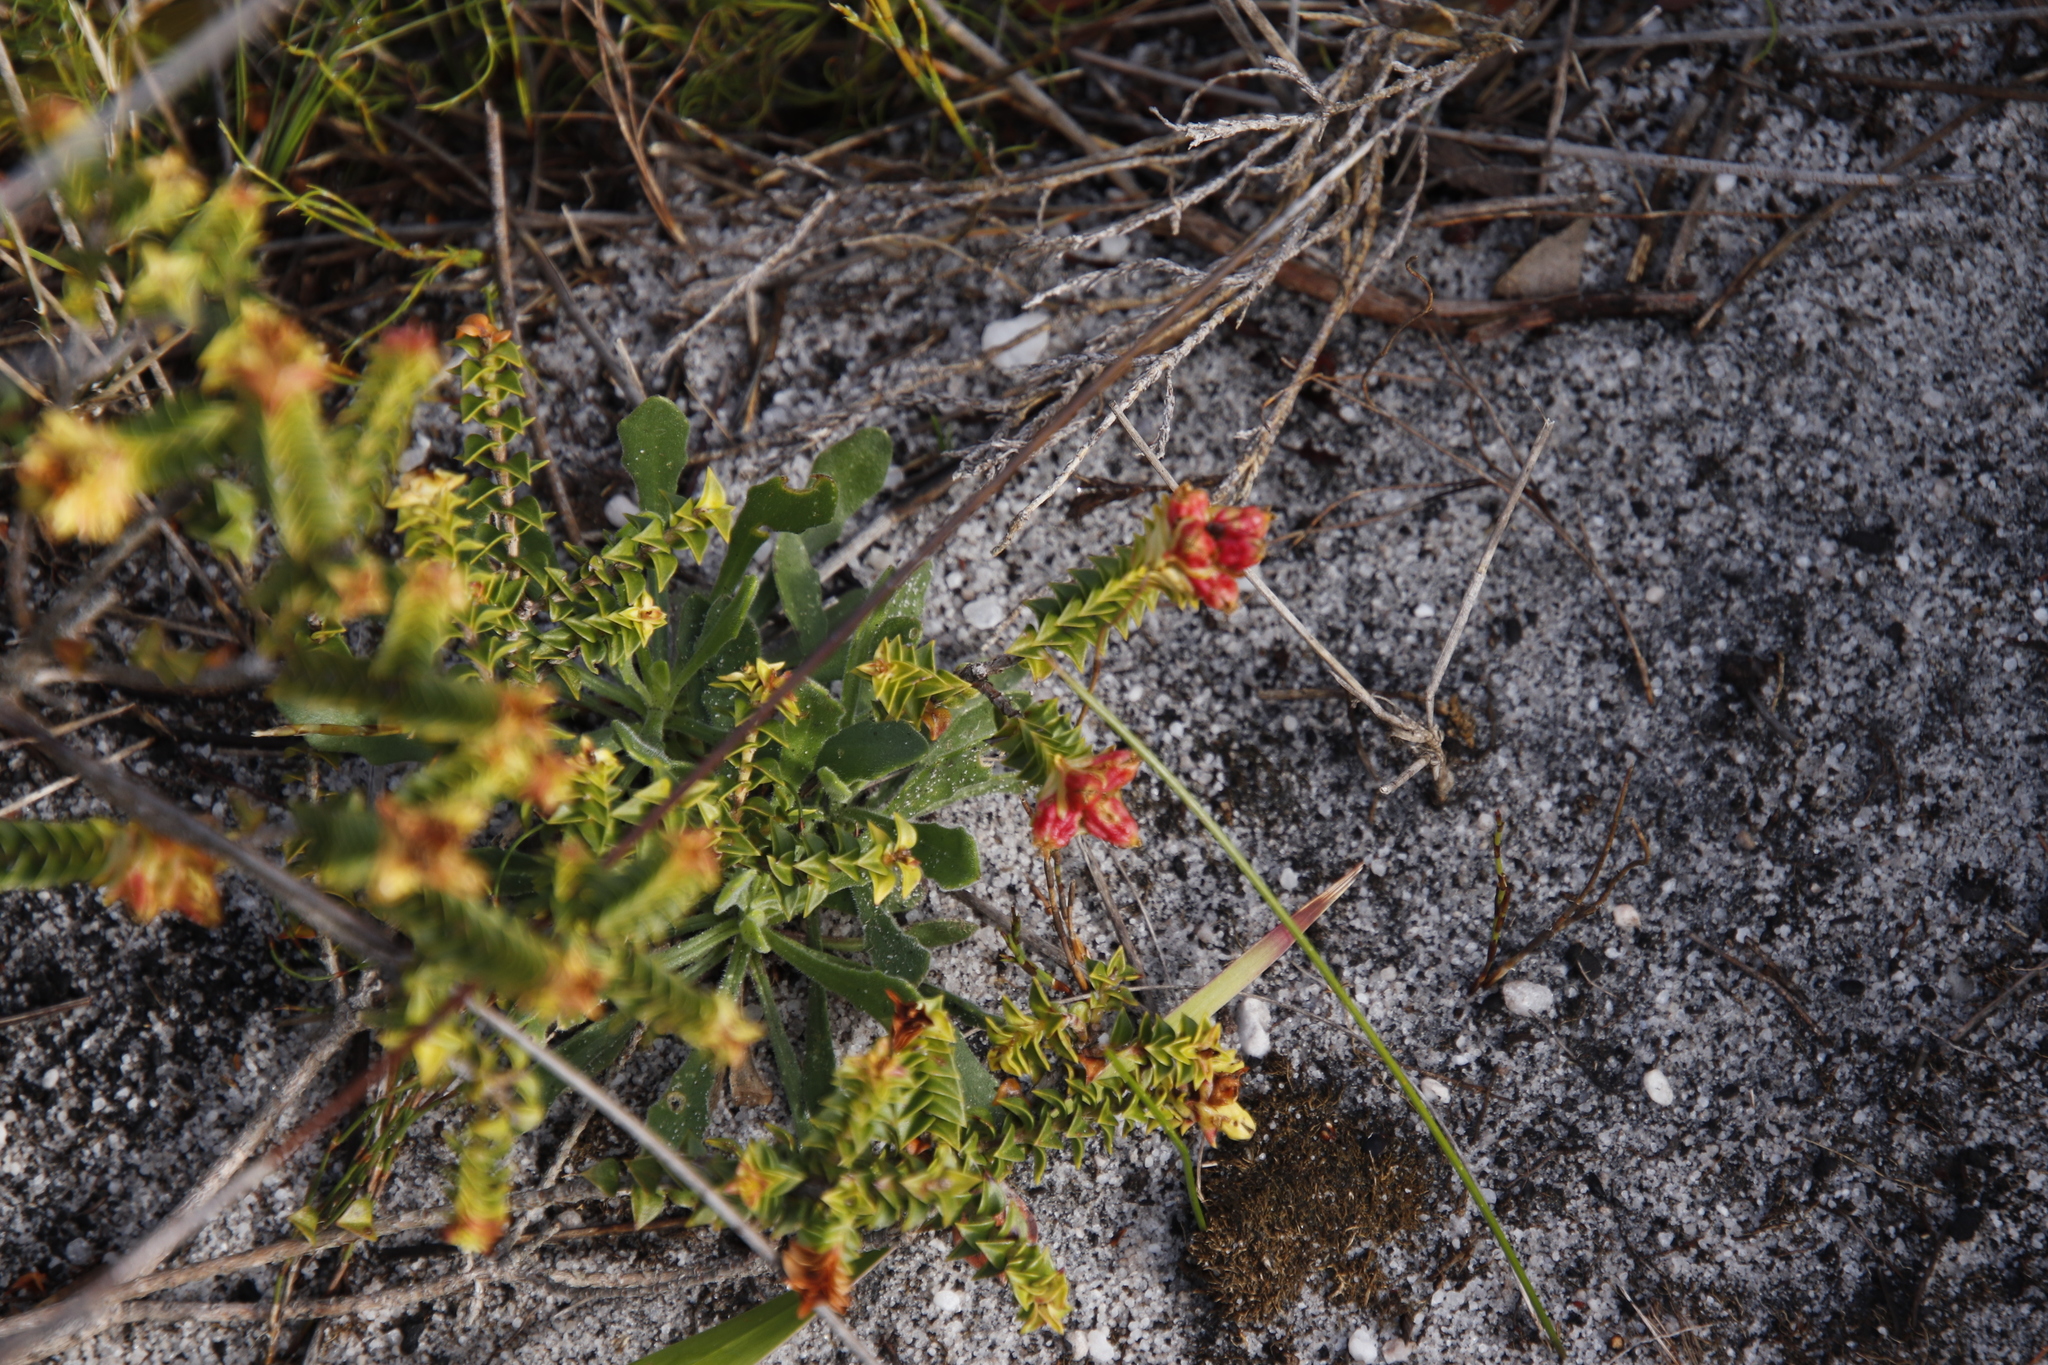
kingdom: Plantae
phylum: Tracheophyta
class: Magnoliopsida
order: Myrtales
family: Penaeaceae
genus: Penaea
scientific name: Penaea mucronata
